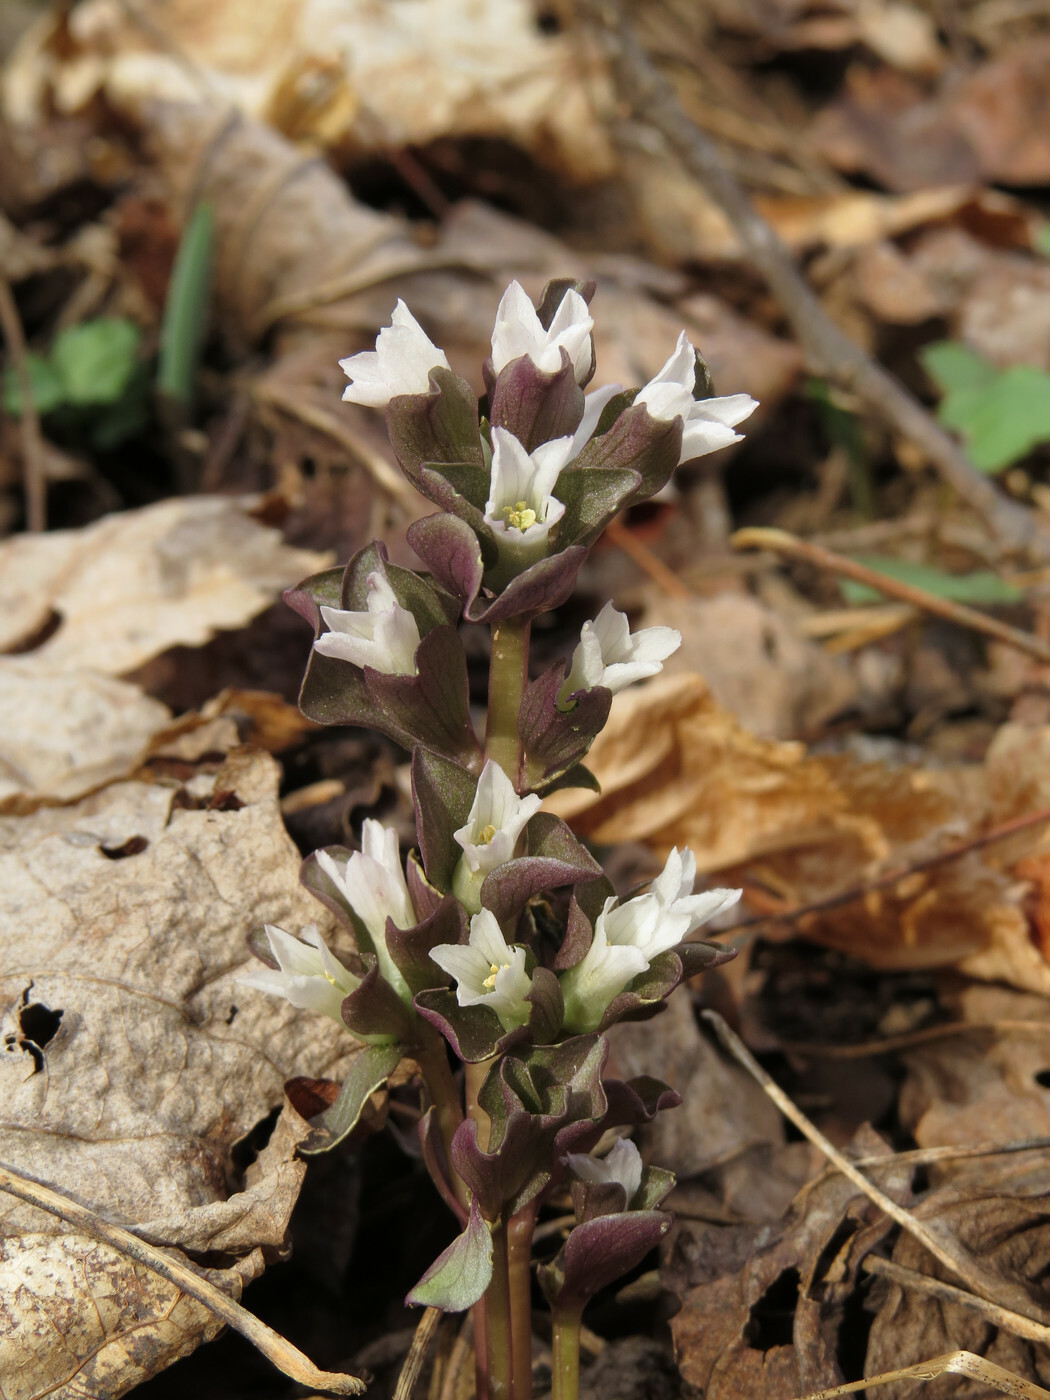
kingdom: Plantae
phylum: Tracheophyta
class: Magnoliopsida
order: Gentianales
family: Gentianaceae
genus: Obolaria
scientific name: Obolaria virginica
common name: Pennywort
